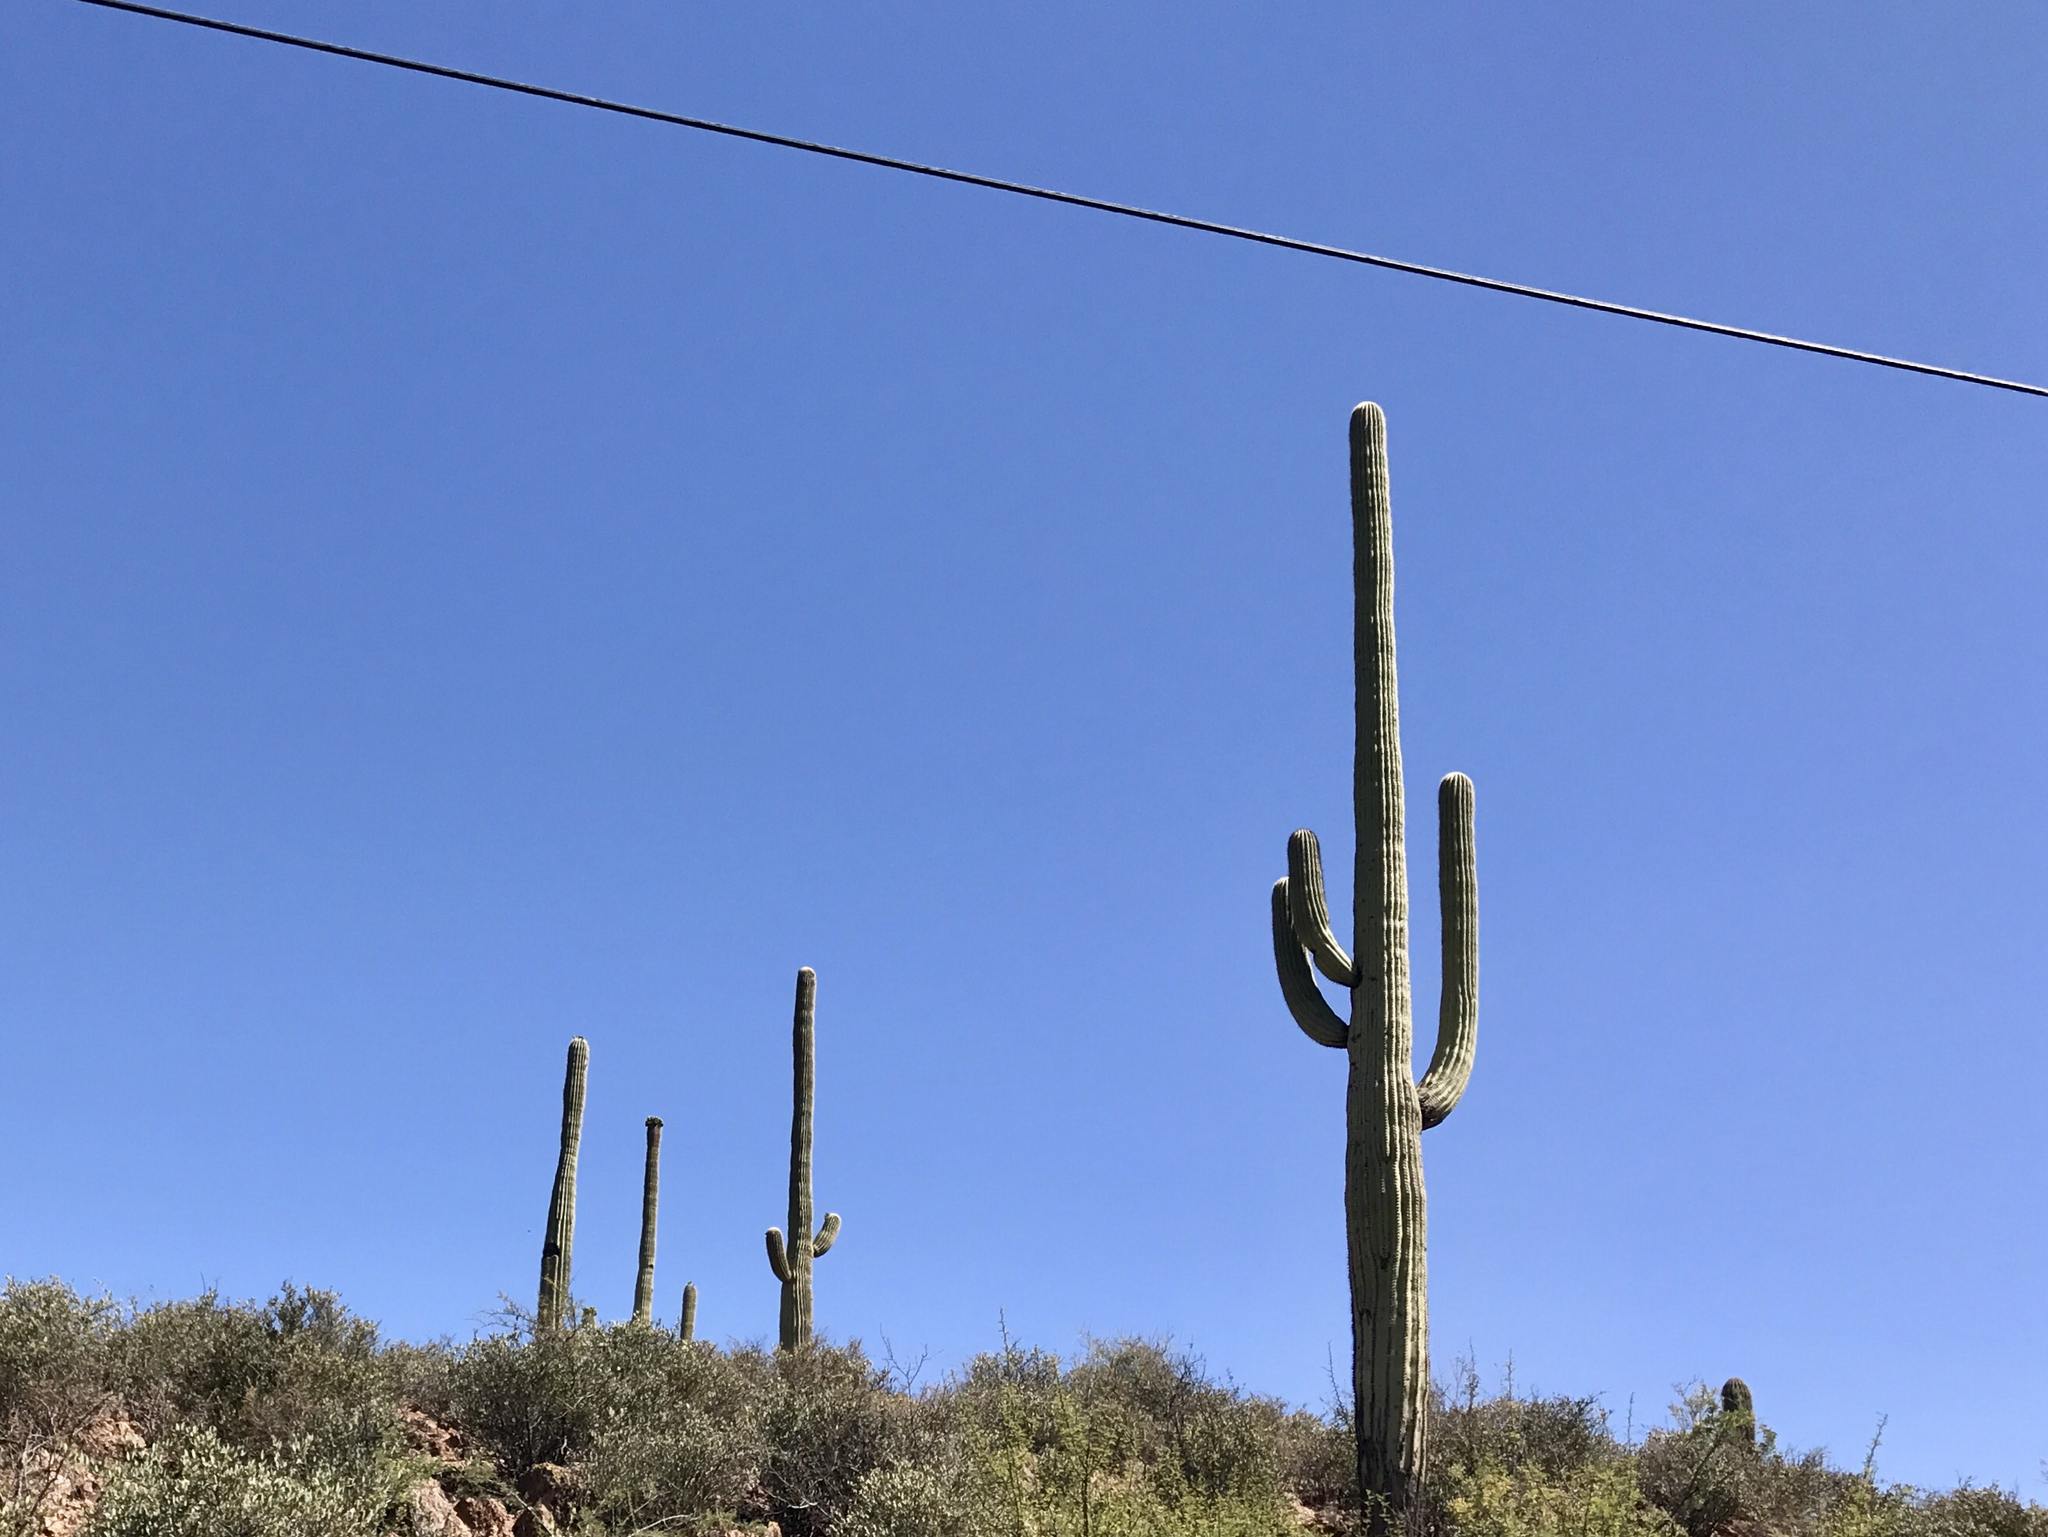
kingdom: Plantae
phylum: Tracheophyta
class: Magnoliopsida
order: Caryophyllales
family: Cactaceae
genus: Carnegiea
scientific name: Carnegiea gigantea
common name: Saguaro
